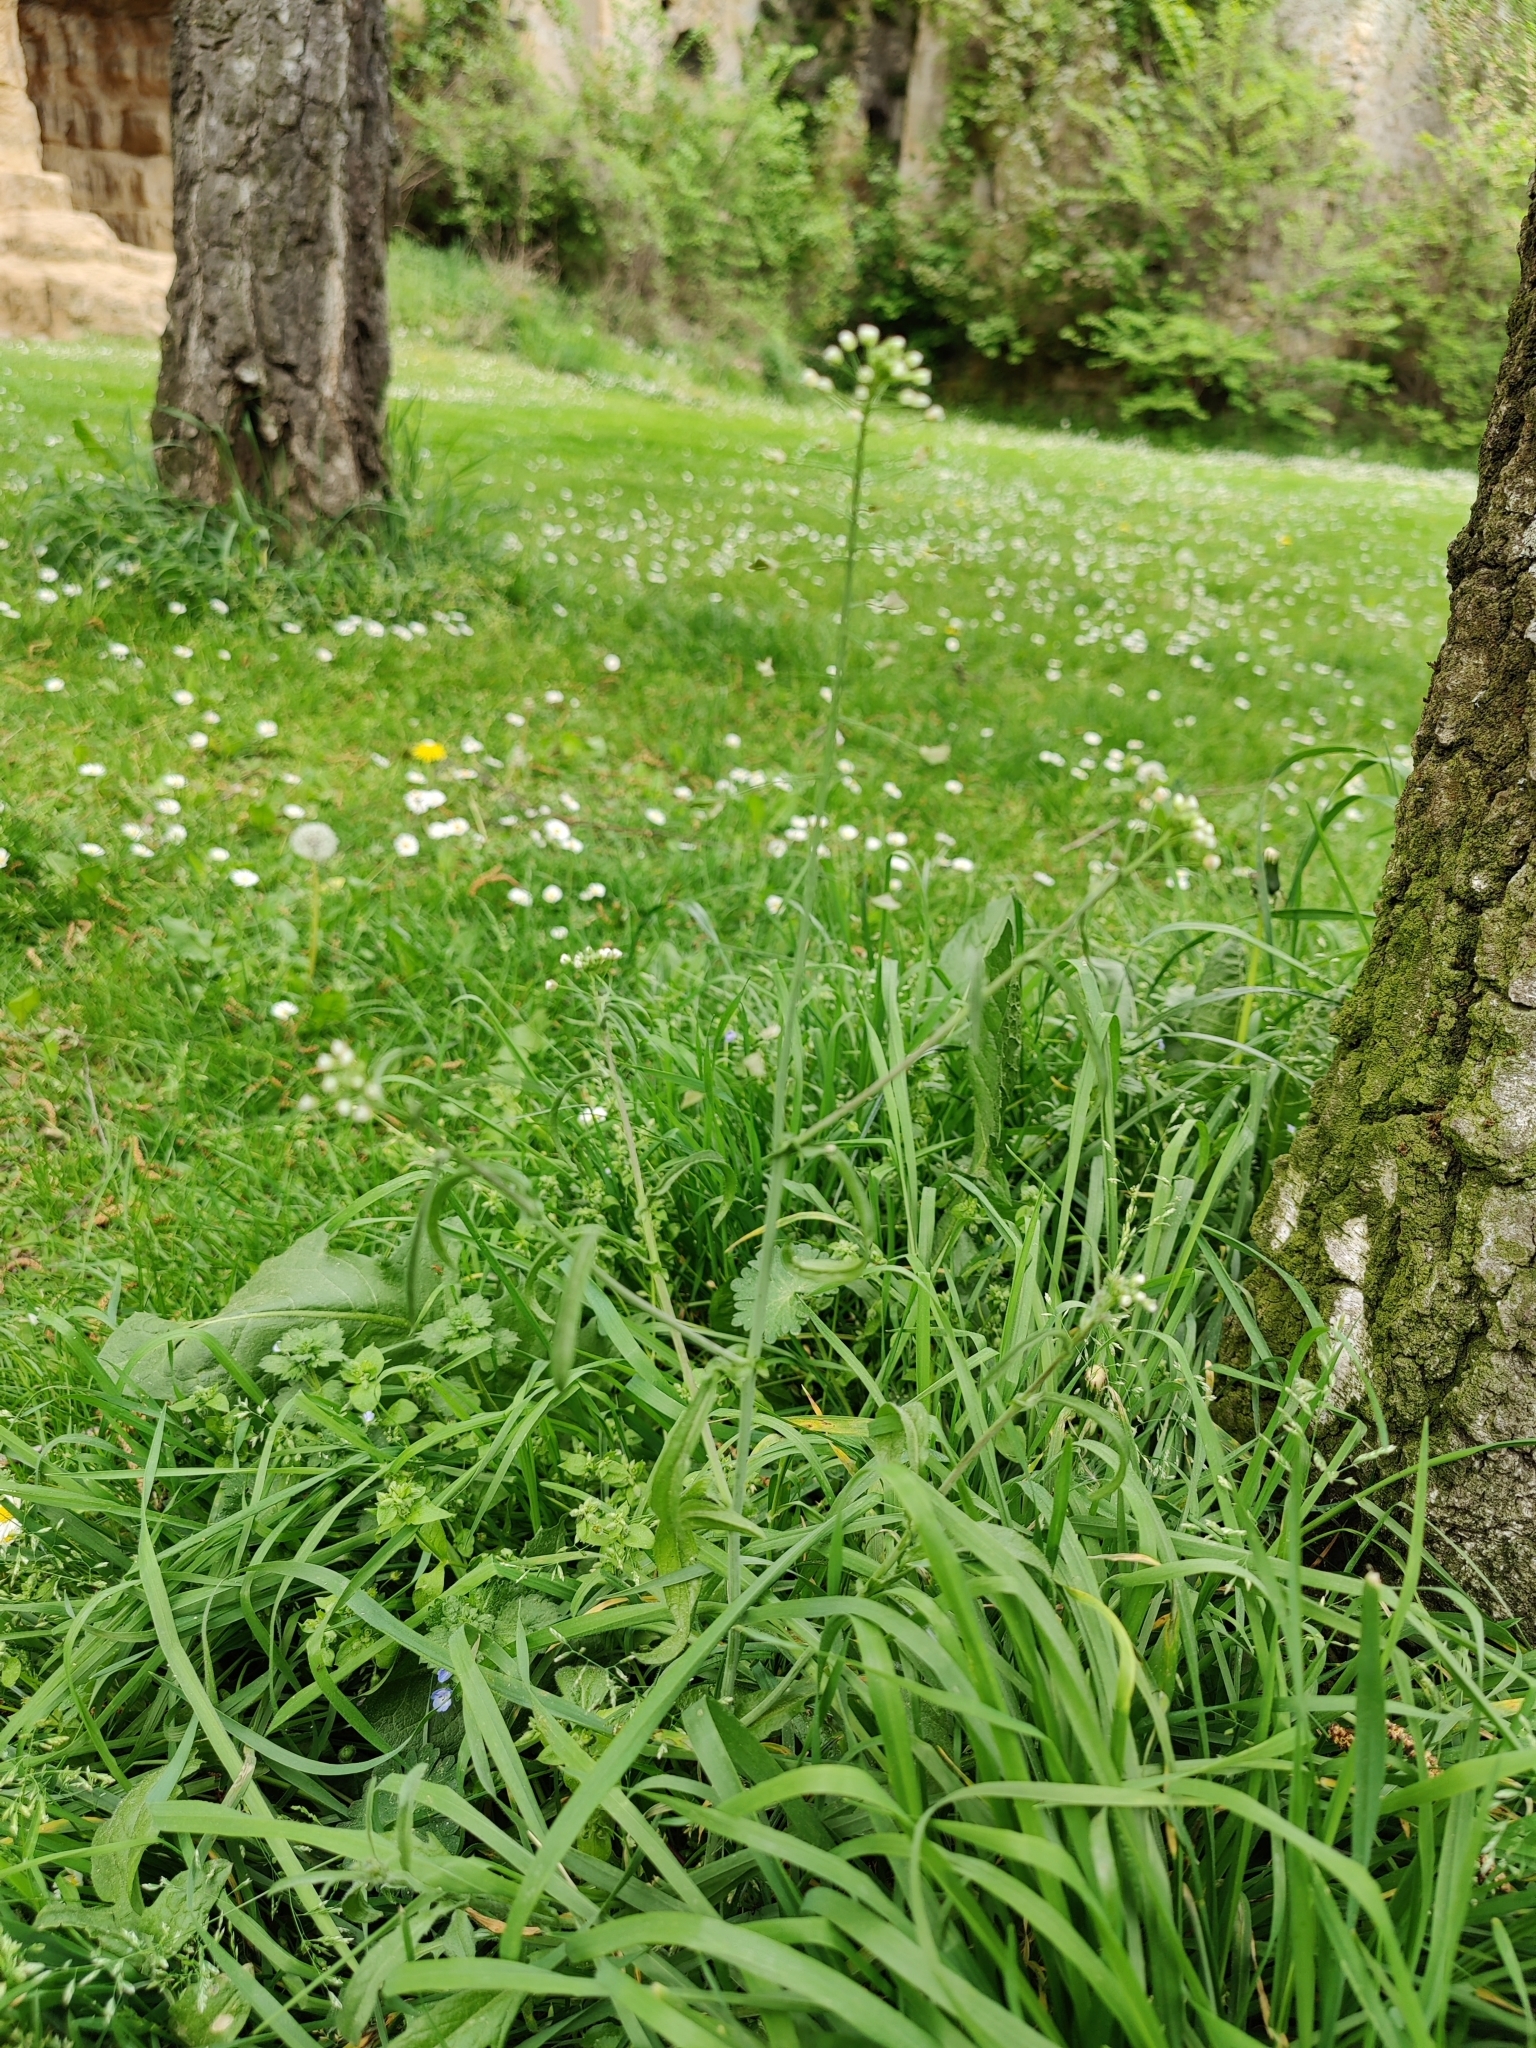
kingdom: Plantae
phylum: Tracheophyta
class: Magnoliopsida
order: Brassicales
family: Brassicaceae
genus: Capsella
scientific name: Capsella bursa-pastoris
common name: Shepherd's purse
